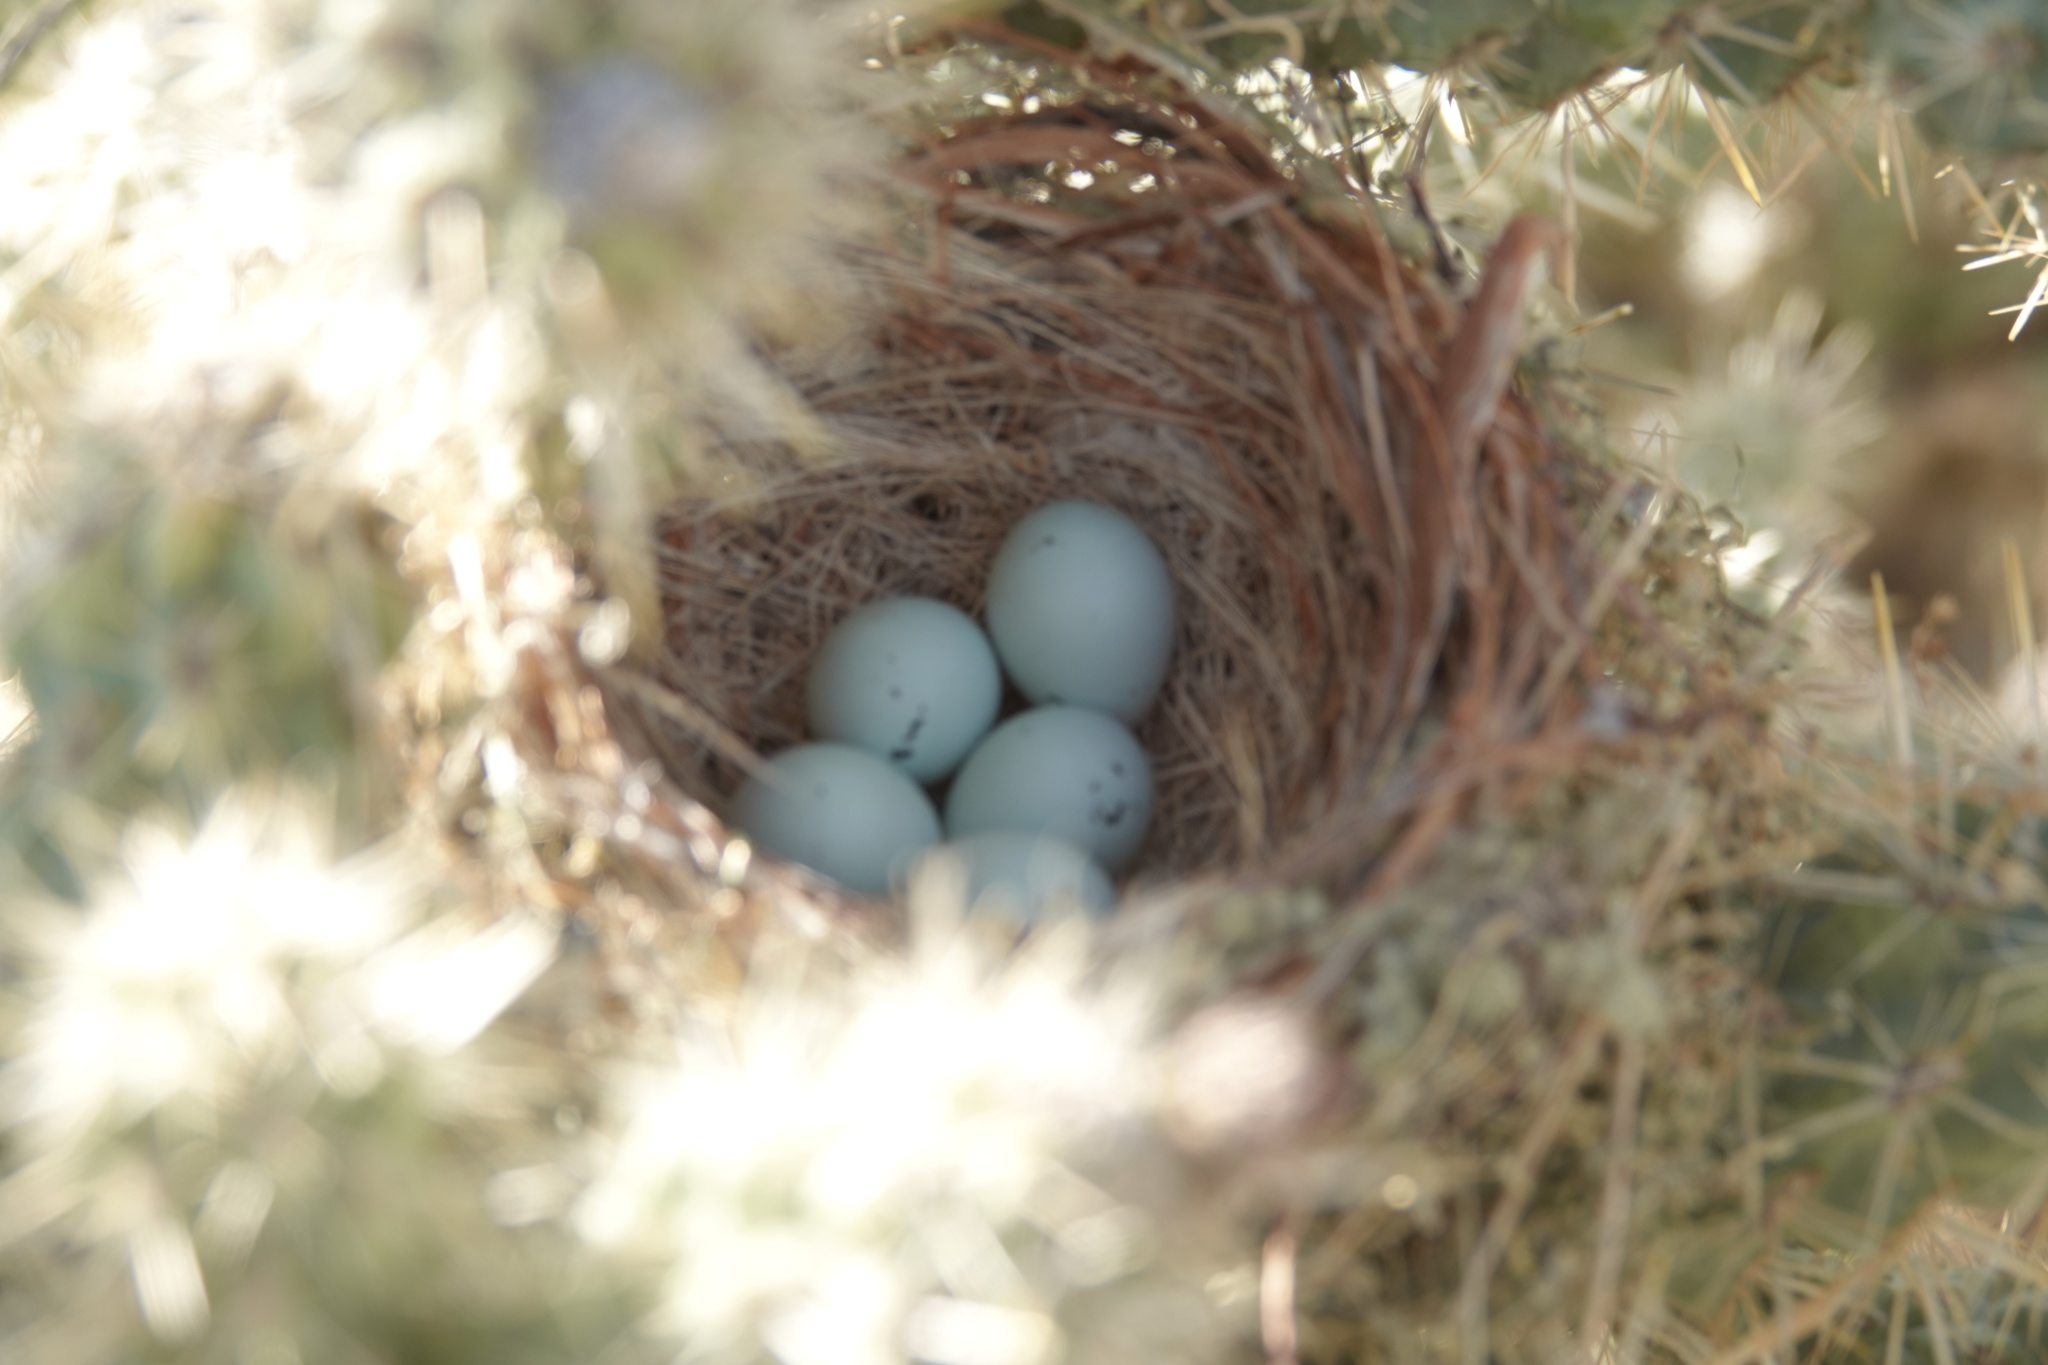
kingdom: Animalia
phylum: Chordata
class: Aves
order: Passeriformes
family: Fringillidae
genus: Haemorhous
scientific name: Haemorhous mexicanus
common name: House finch
